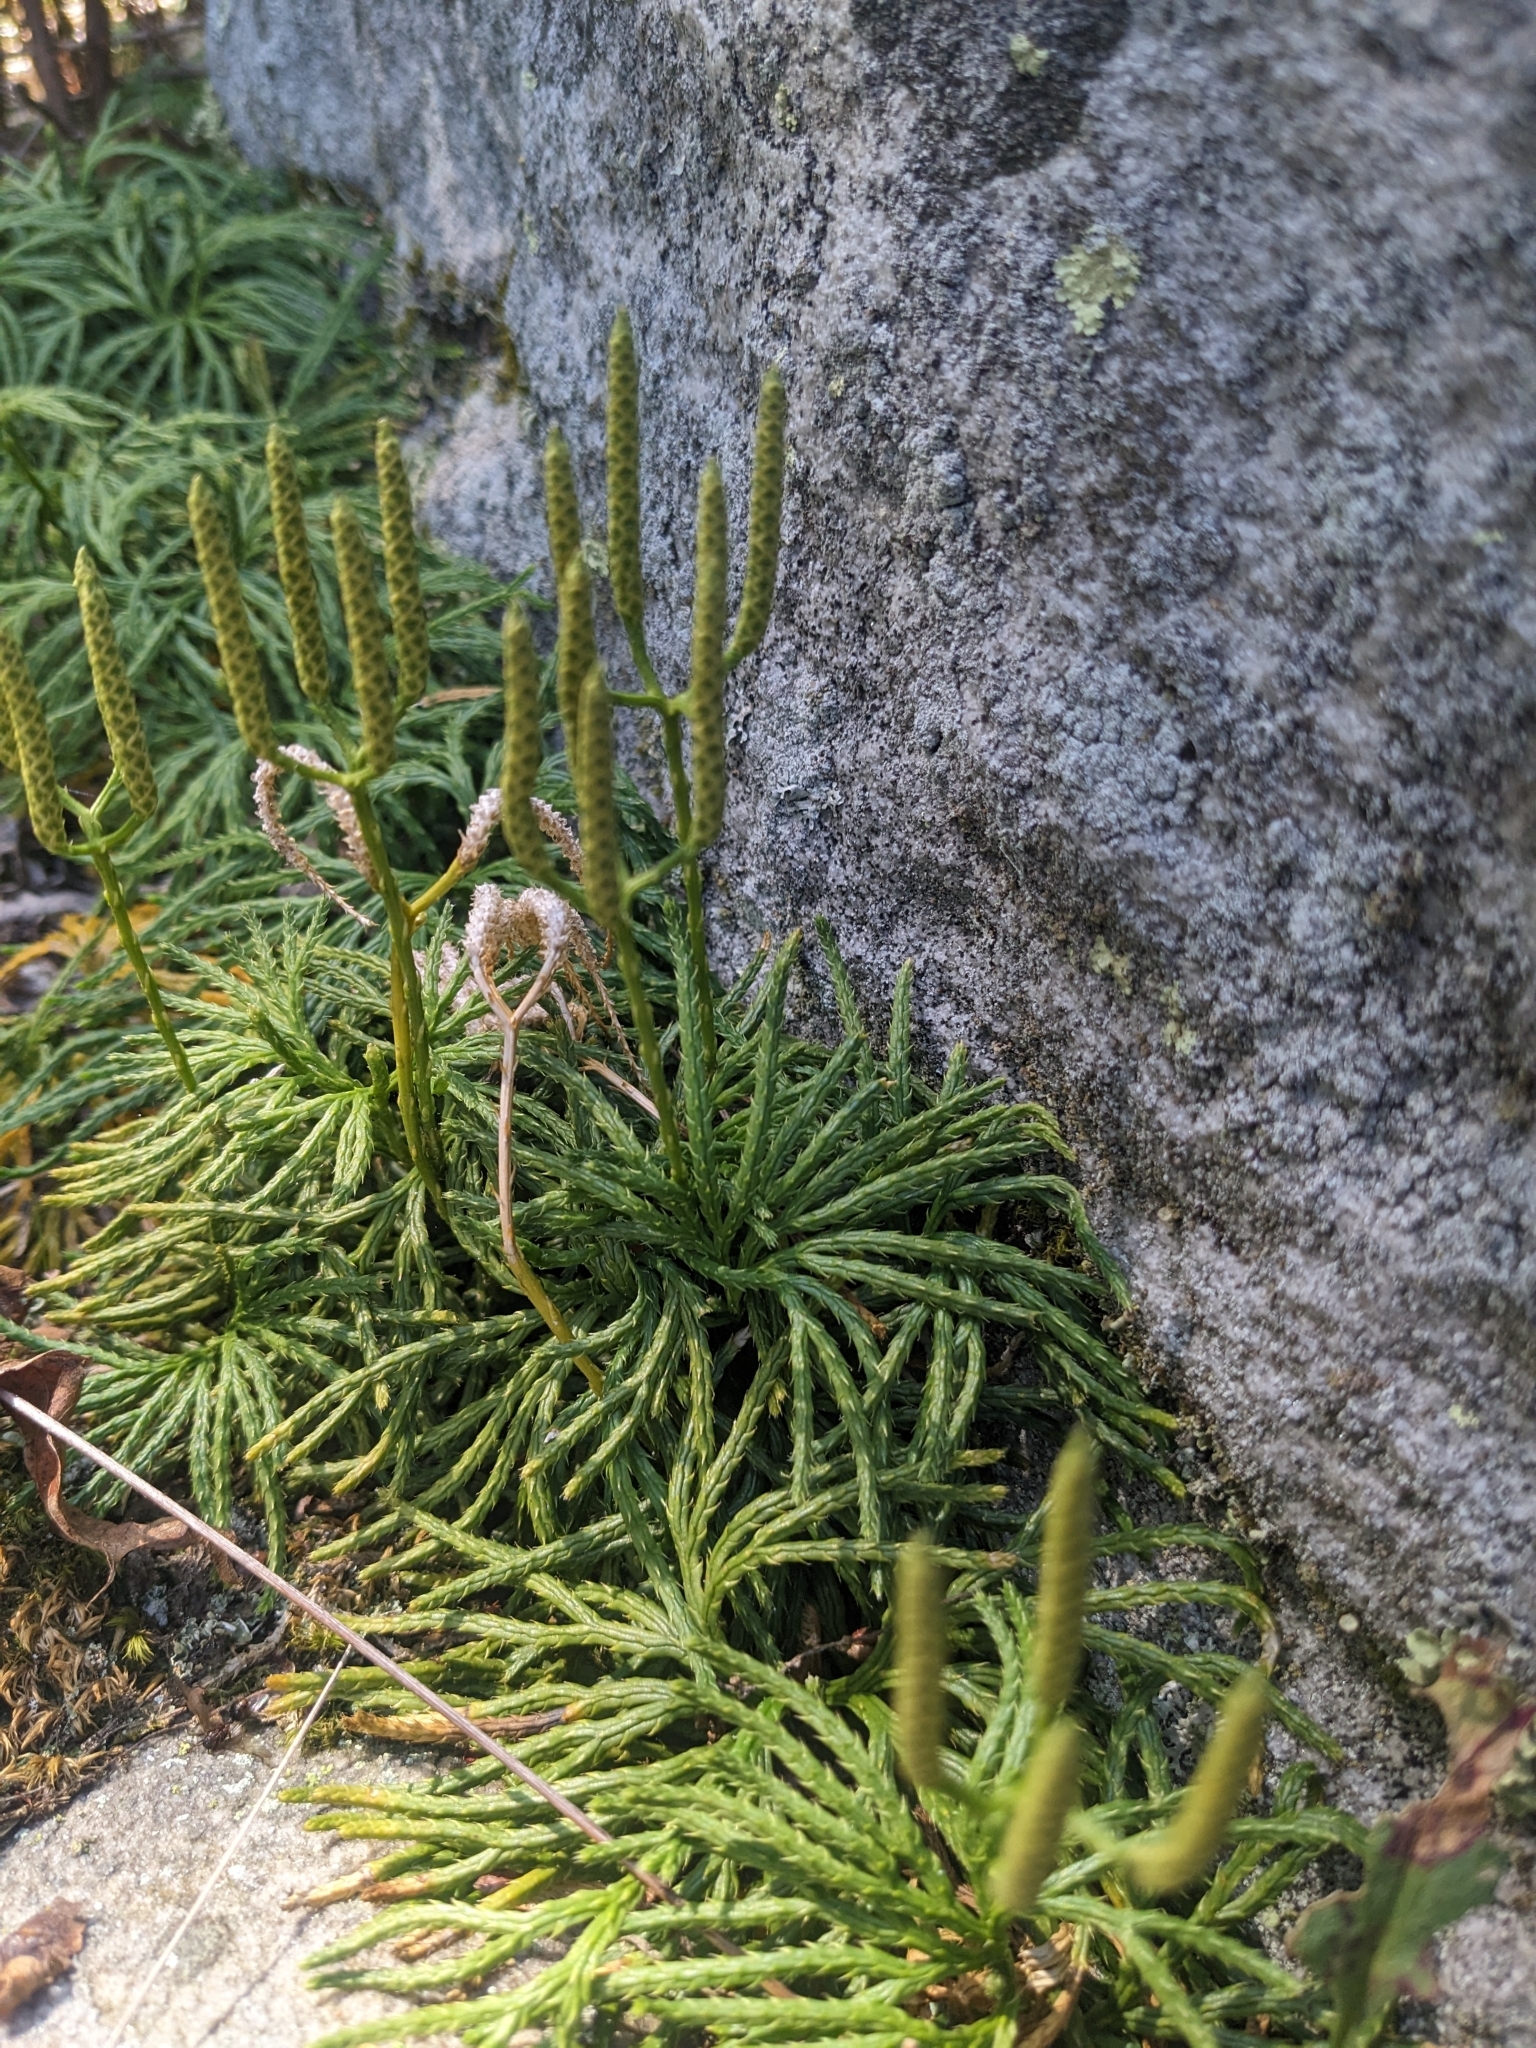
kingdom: Plantae
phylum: Tracheophyta
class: Lycopodiopsida
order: Lycopodiales
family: Lycopodiaceae
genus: Diphasiastrum
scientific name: Diphasiastrum digitatum
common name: Southern running-pine
